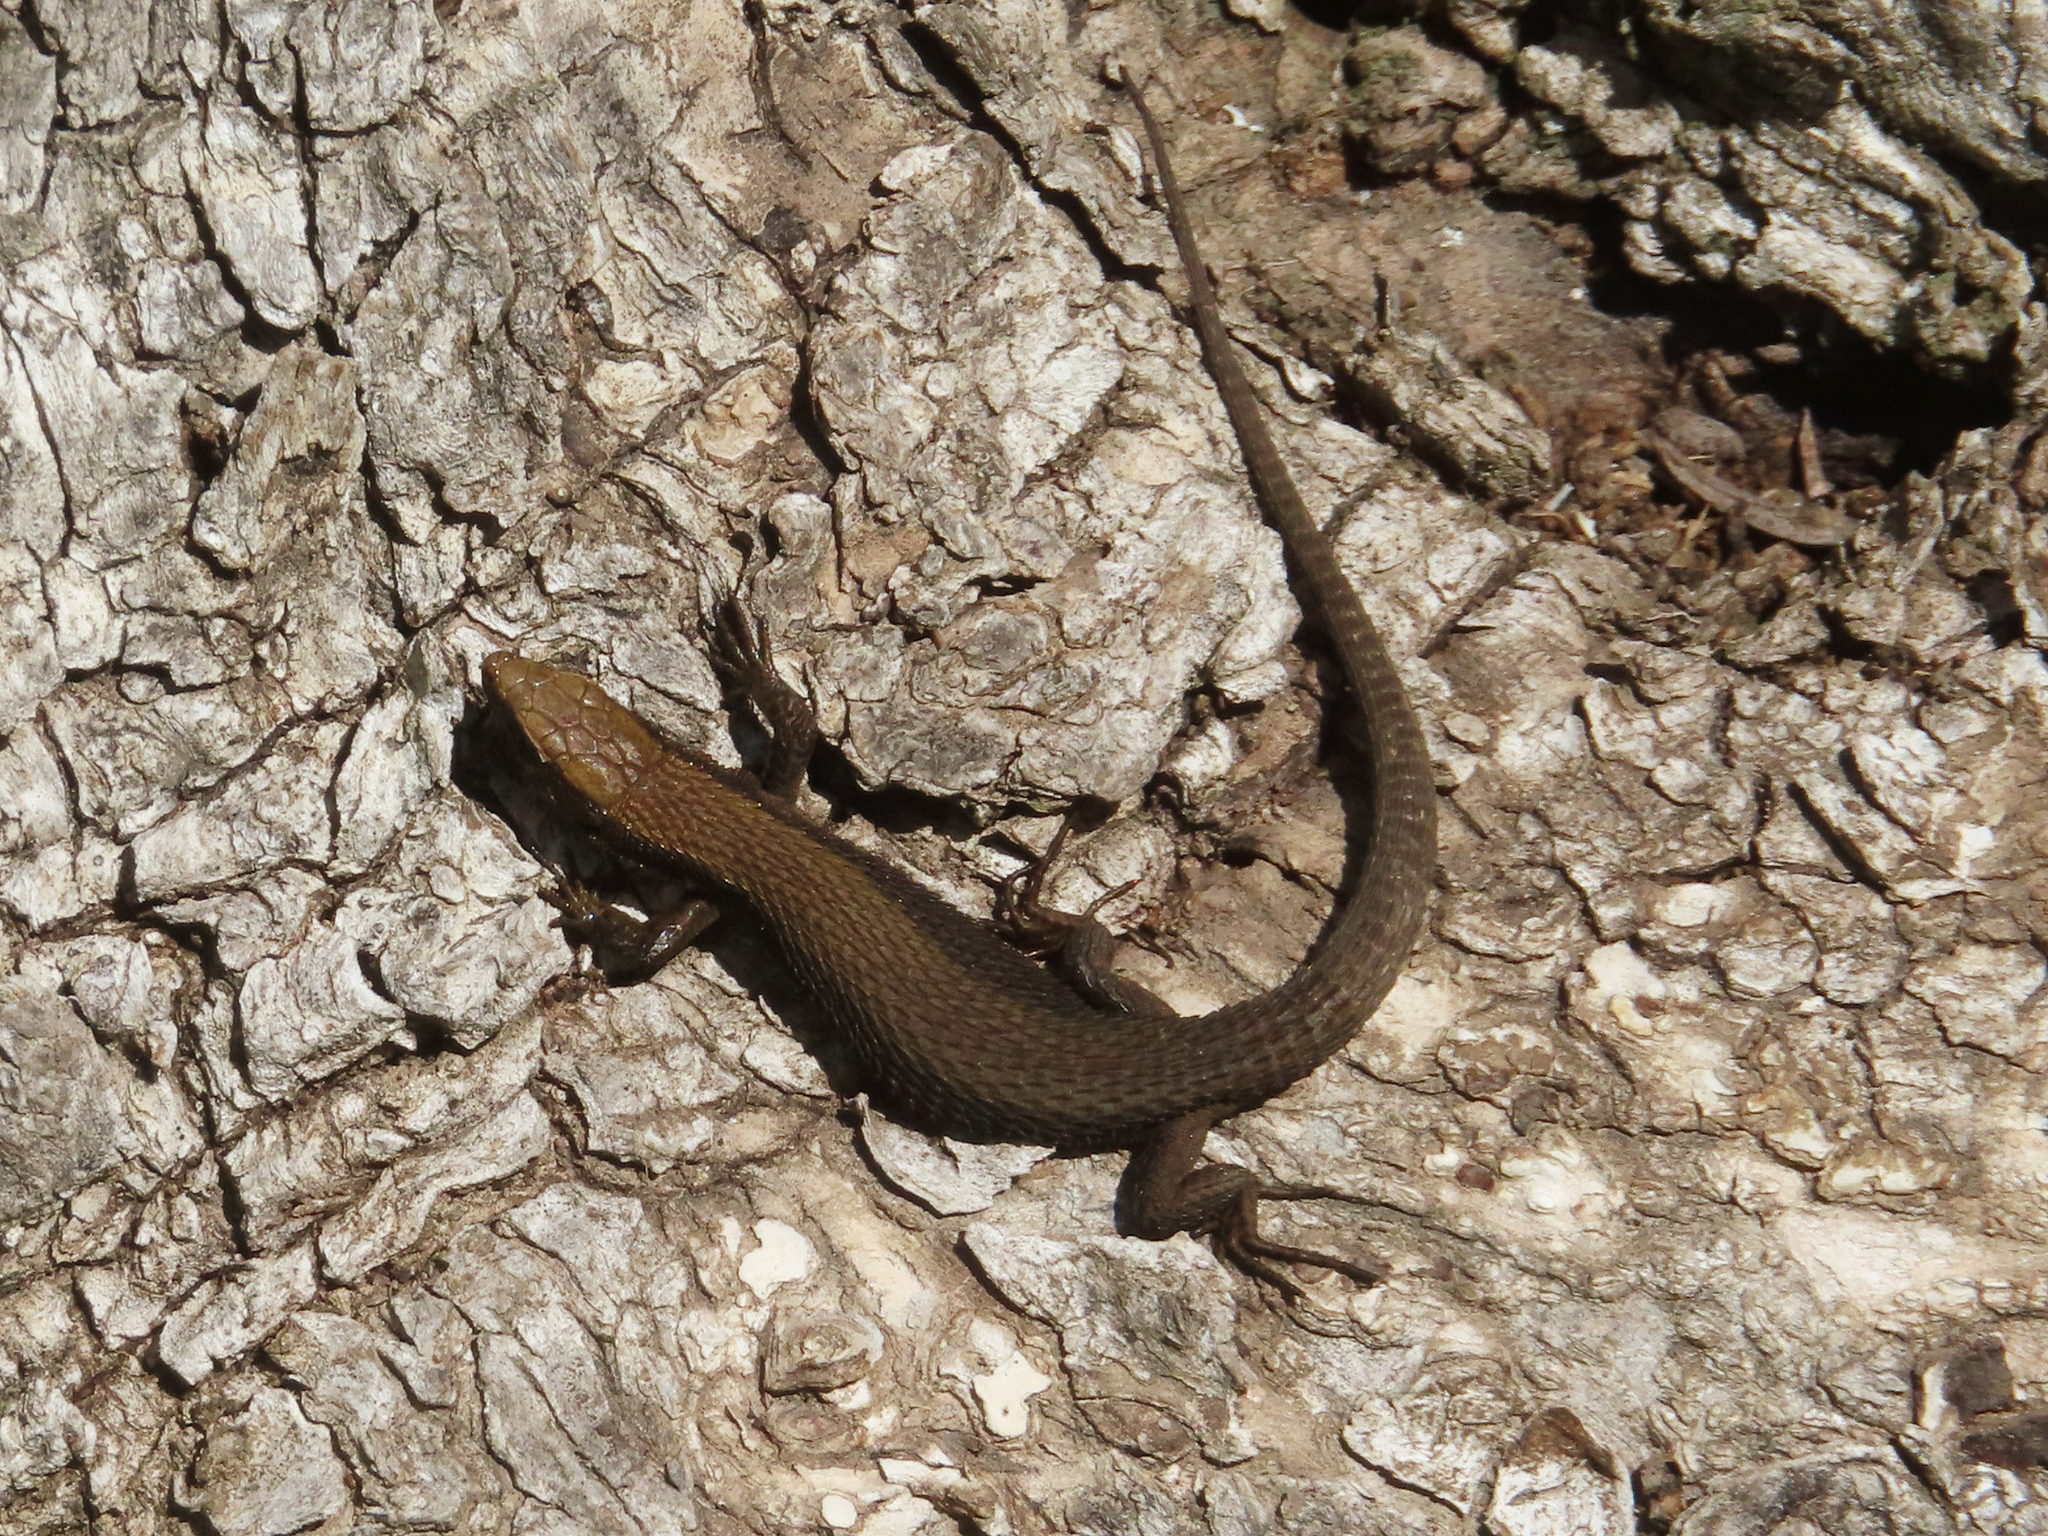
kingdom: Animalia
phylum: Chordata
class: Squamata
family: Lacertidae
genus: Algyroides
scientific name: Algyroides moreoticus
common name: Greek algyroides
